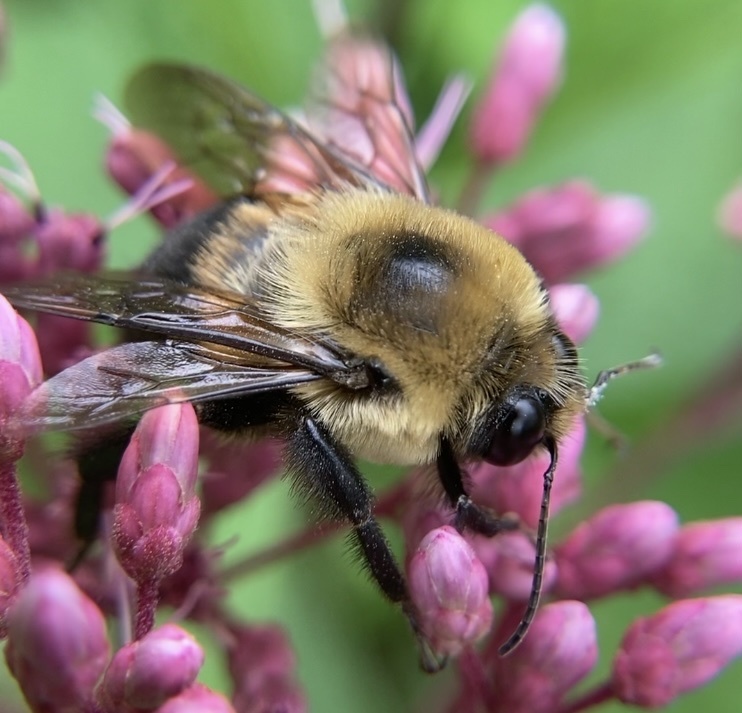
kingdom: Animalia
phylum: Arthropoda
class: Insecta
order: Hymenoptera
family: Apidae
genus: Bombus
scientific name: Bombus griseocollis
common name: Brown-belted bumble bee
